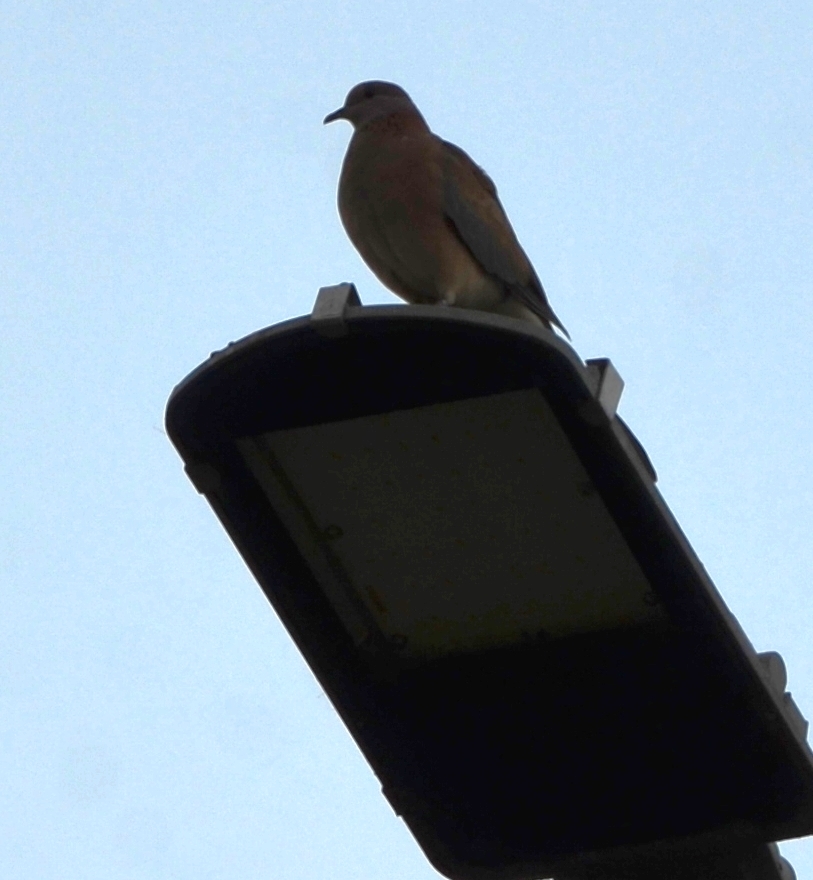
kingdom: Animalia
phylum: Chordata
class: Aves
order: Columbiformes
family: Columbidae
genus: Spilopelia
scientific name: Spilopelia senegalensis
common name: Laughing dove
